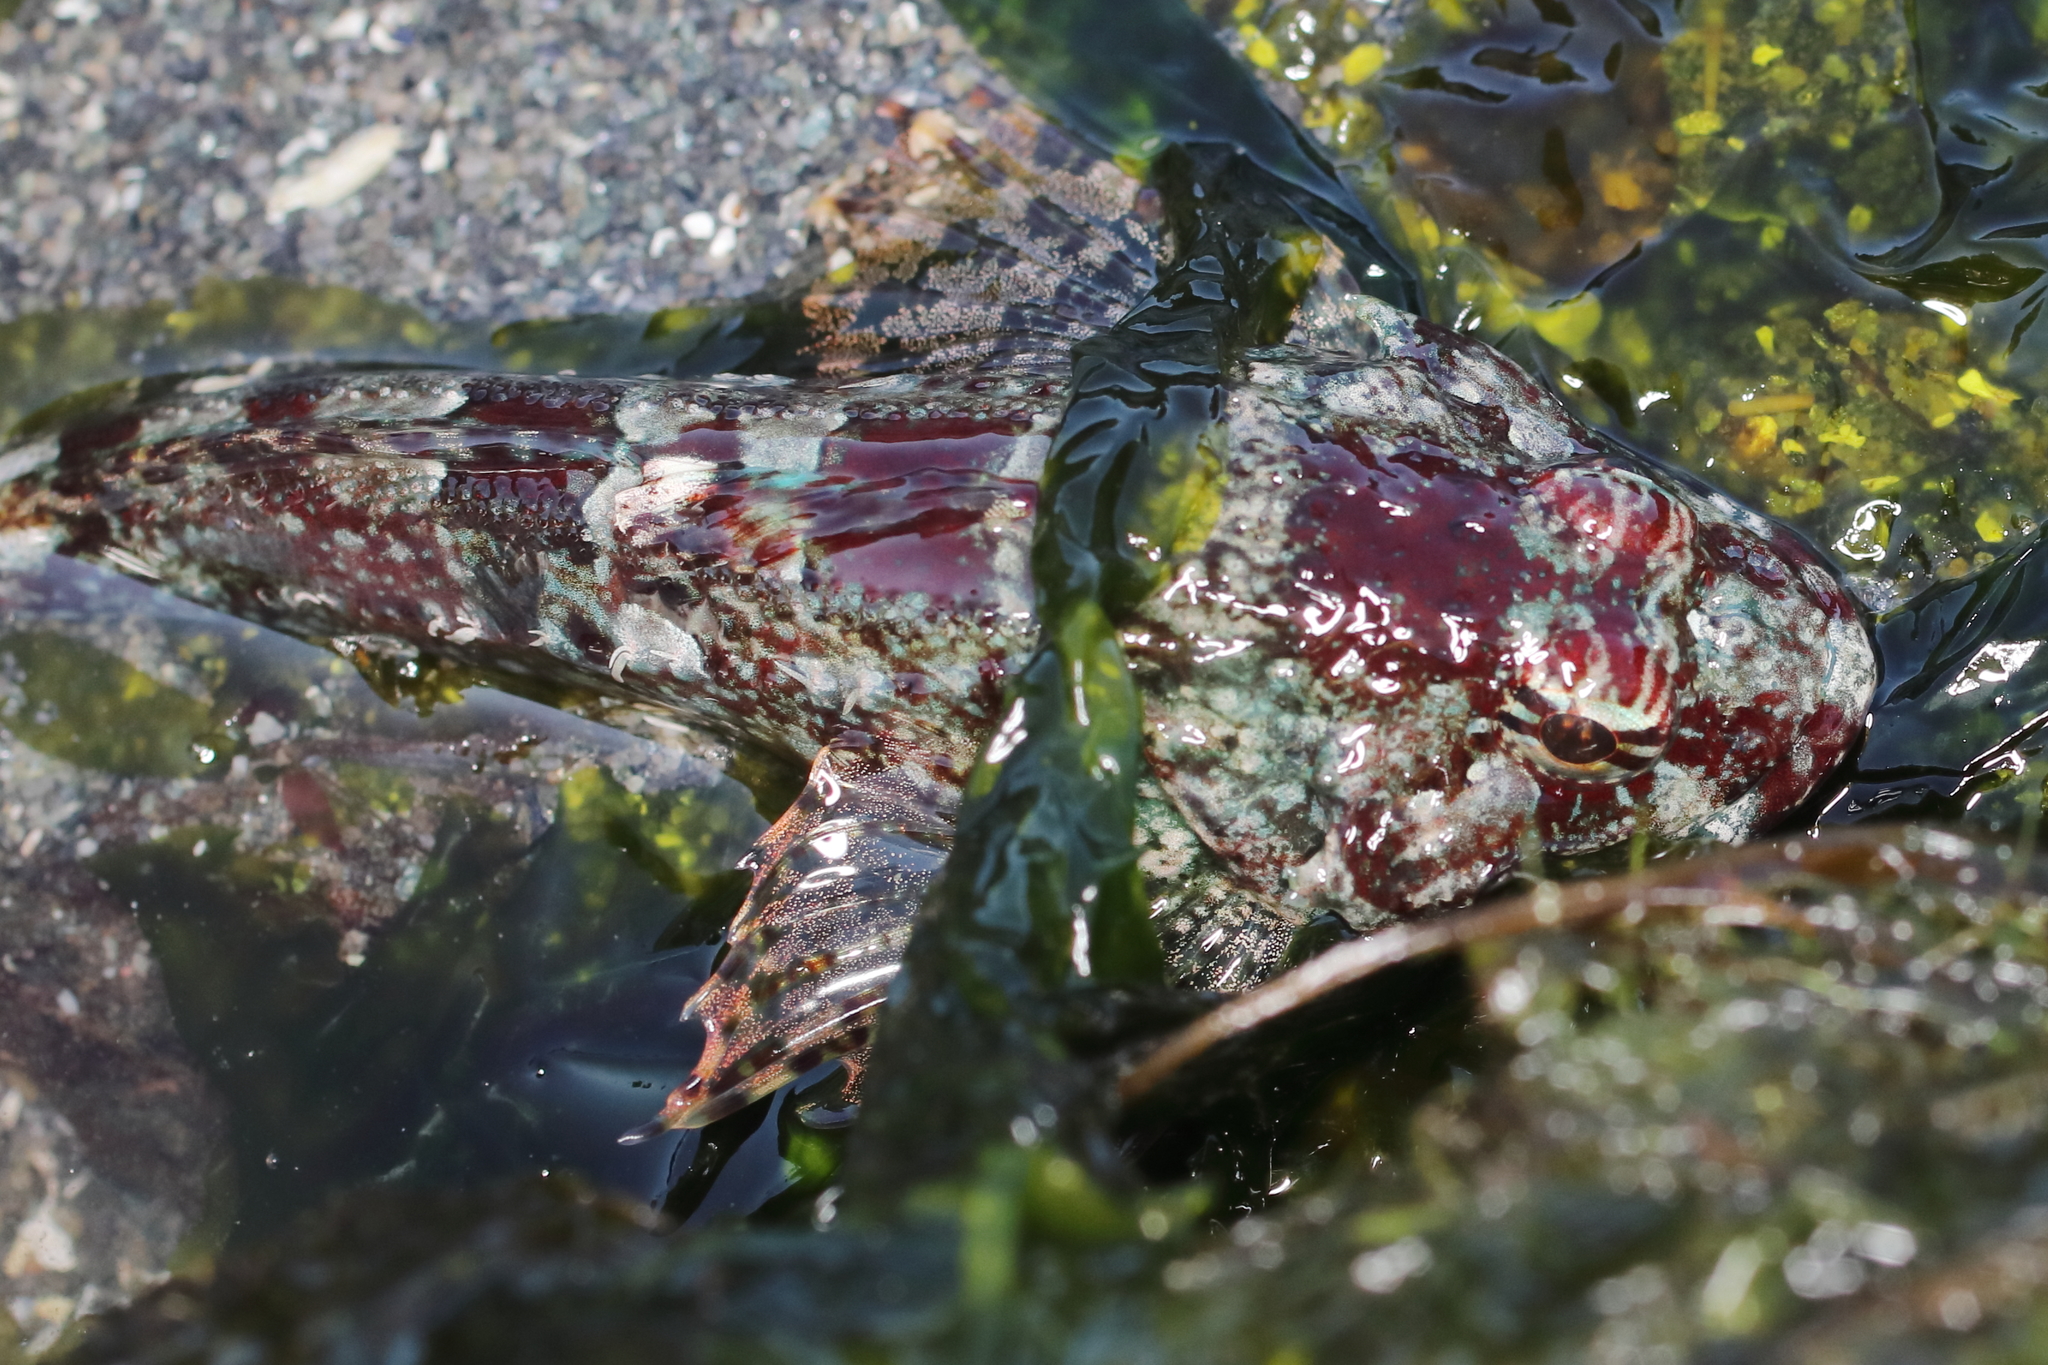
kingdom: Animalia
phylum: Chordata
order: Scorpaeniformes
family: Cottidae
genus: Artedius
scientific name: Artedius lateralis
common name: Smooth-head sculpin
